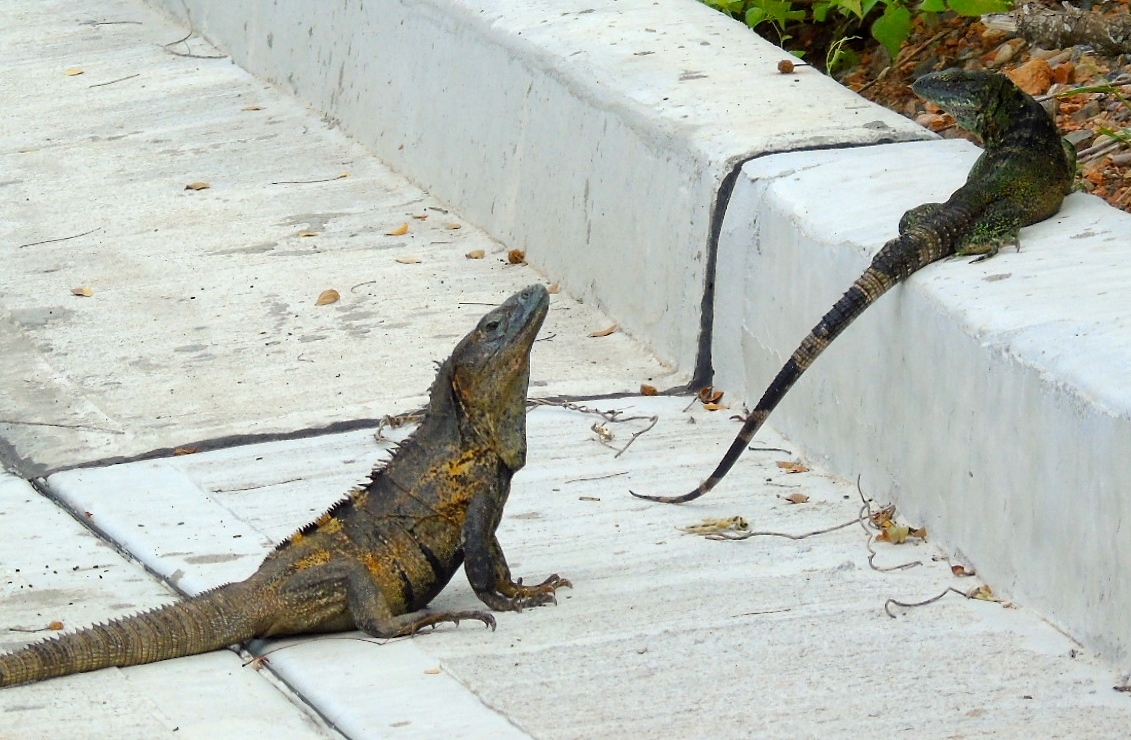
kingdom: Animalia
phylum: Chordata
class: Squamata
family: Iguanidae
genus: Ctenosaura
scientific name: Ctenosaura pectinata
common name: Guerreran spiny-tailed iguana
